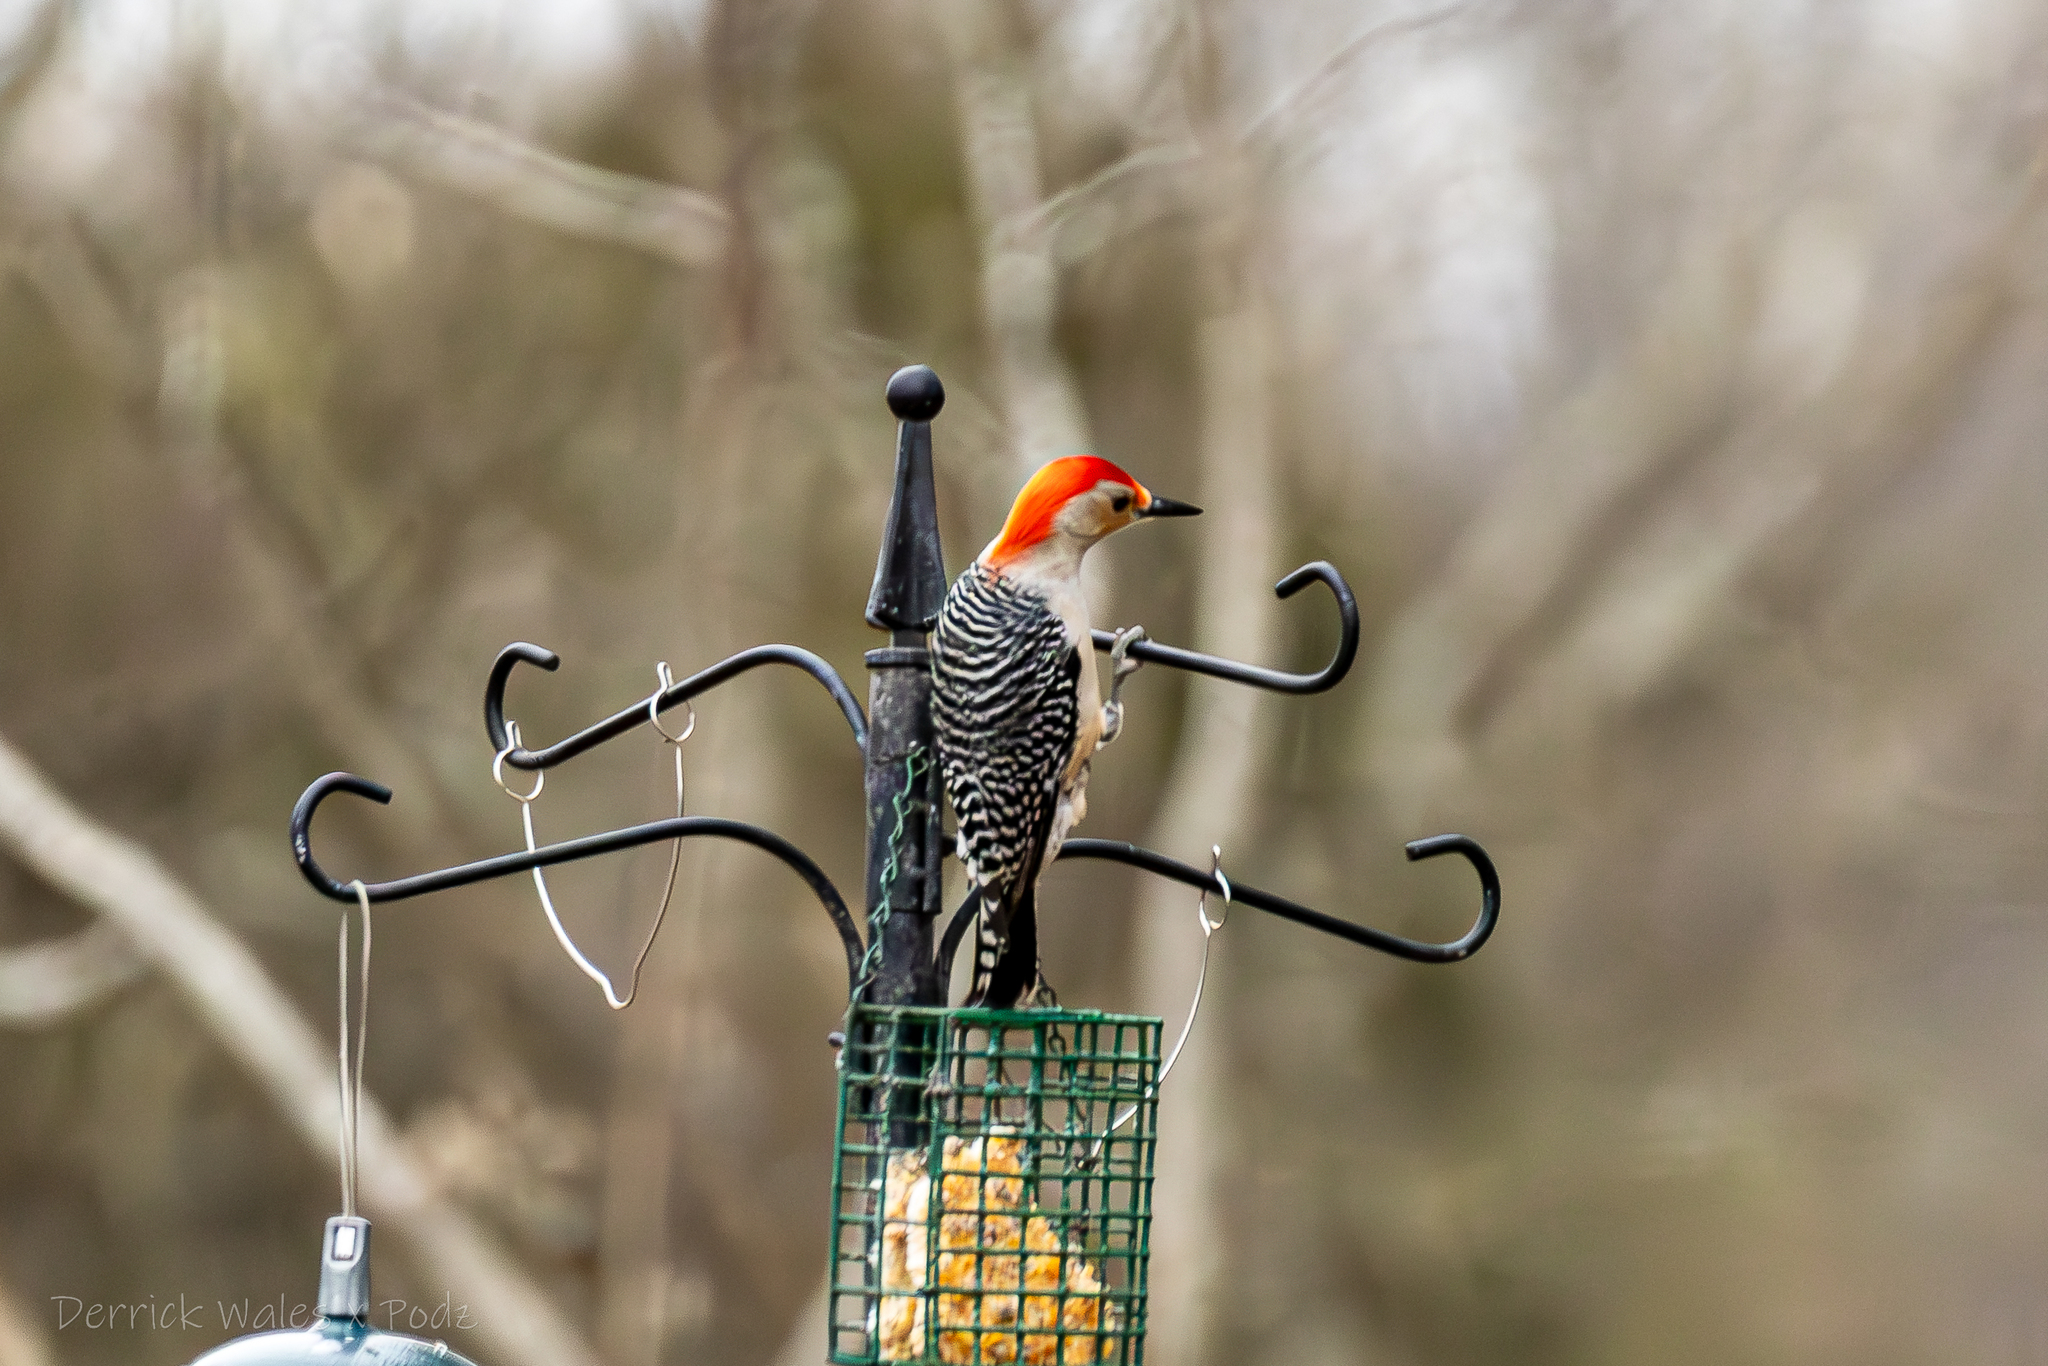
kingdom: Animalia
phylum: Chordata
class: Aves
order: Piciformes
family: Picidae
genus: Melanerpes
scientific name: Melanerpes carolinus
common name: Red-bellied woodpecker
